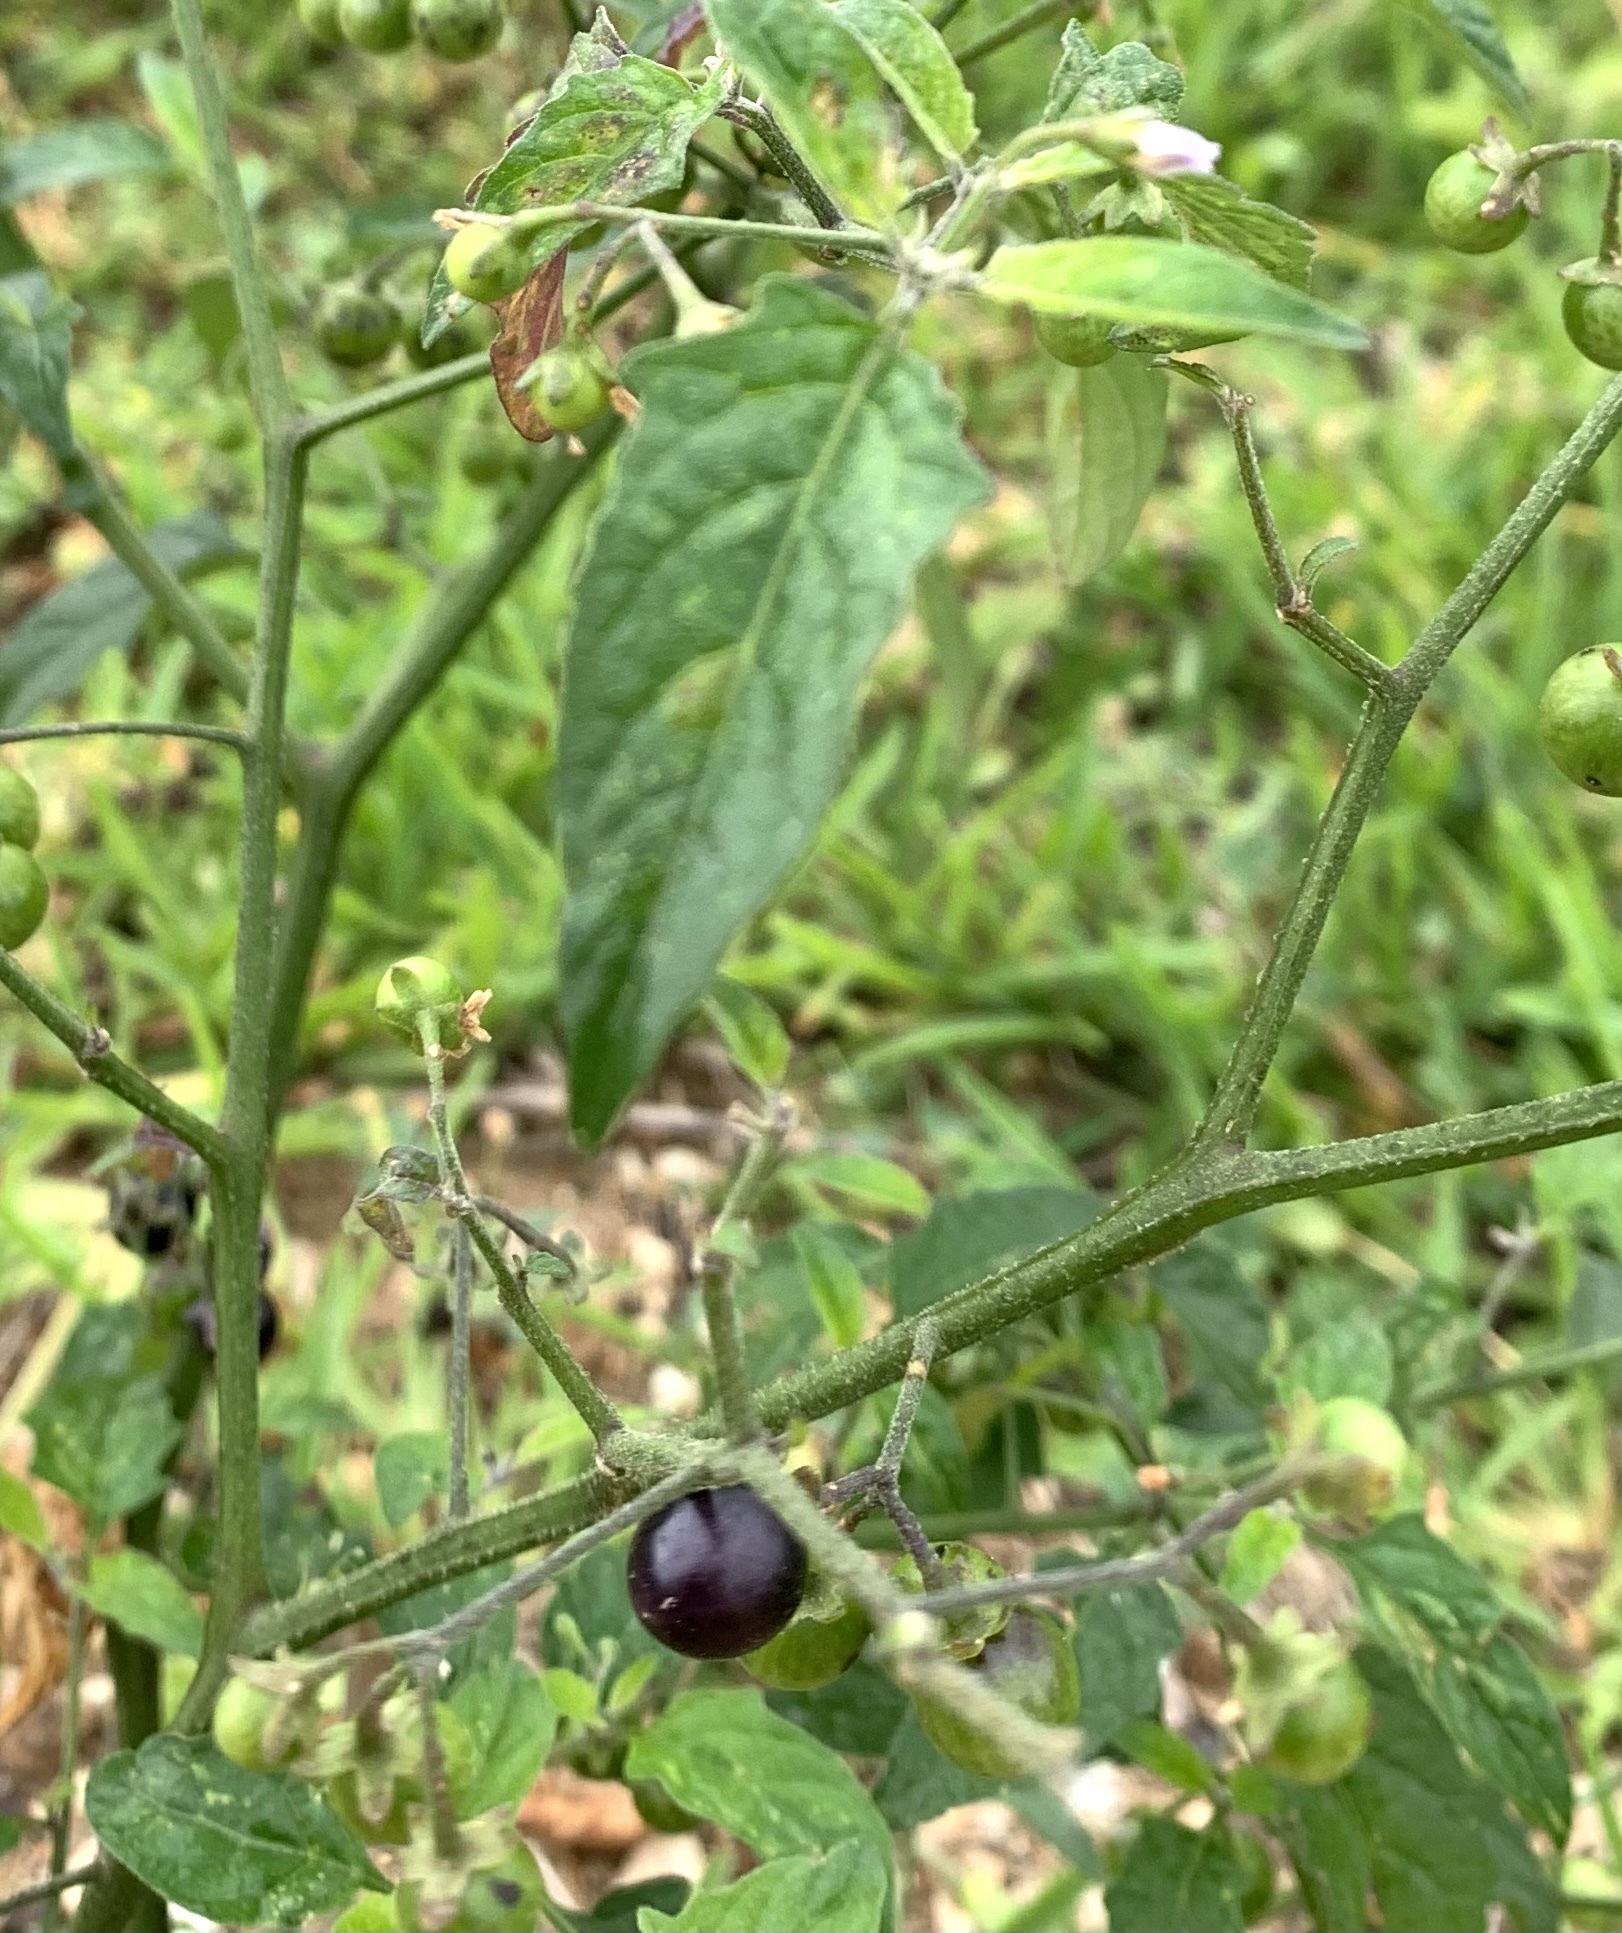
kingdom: Plantae
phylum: Tracheophyta
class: Magnoliopsida
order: Solanales
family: Solanaceae
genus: Solanum
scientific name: Solanum emulans
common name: Eastern black nightshade
